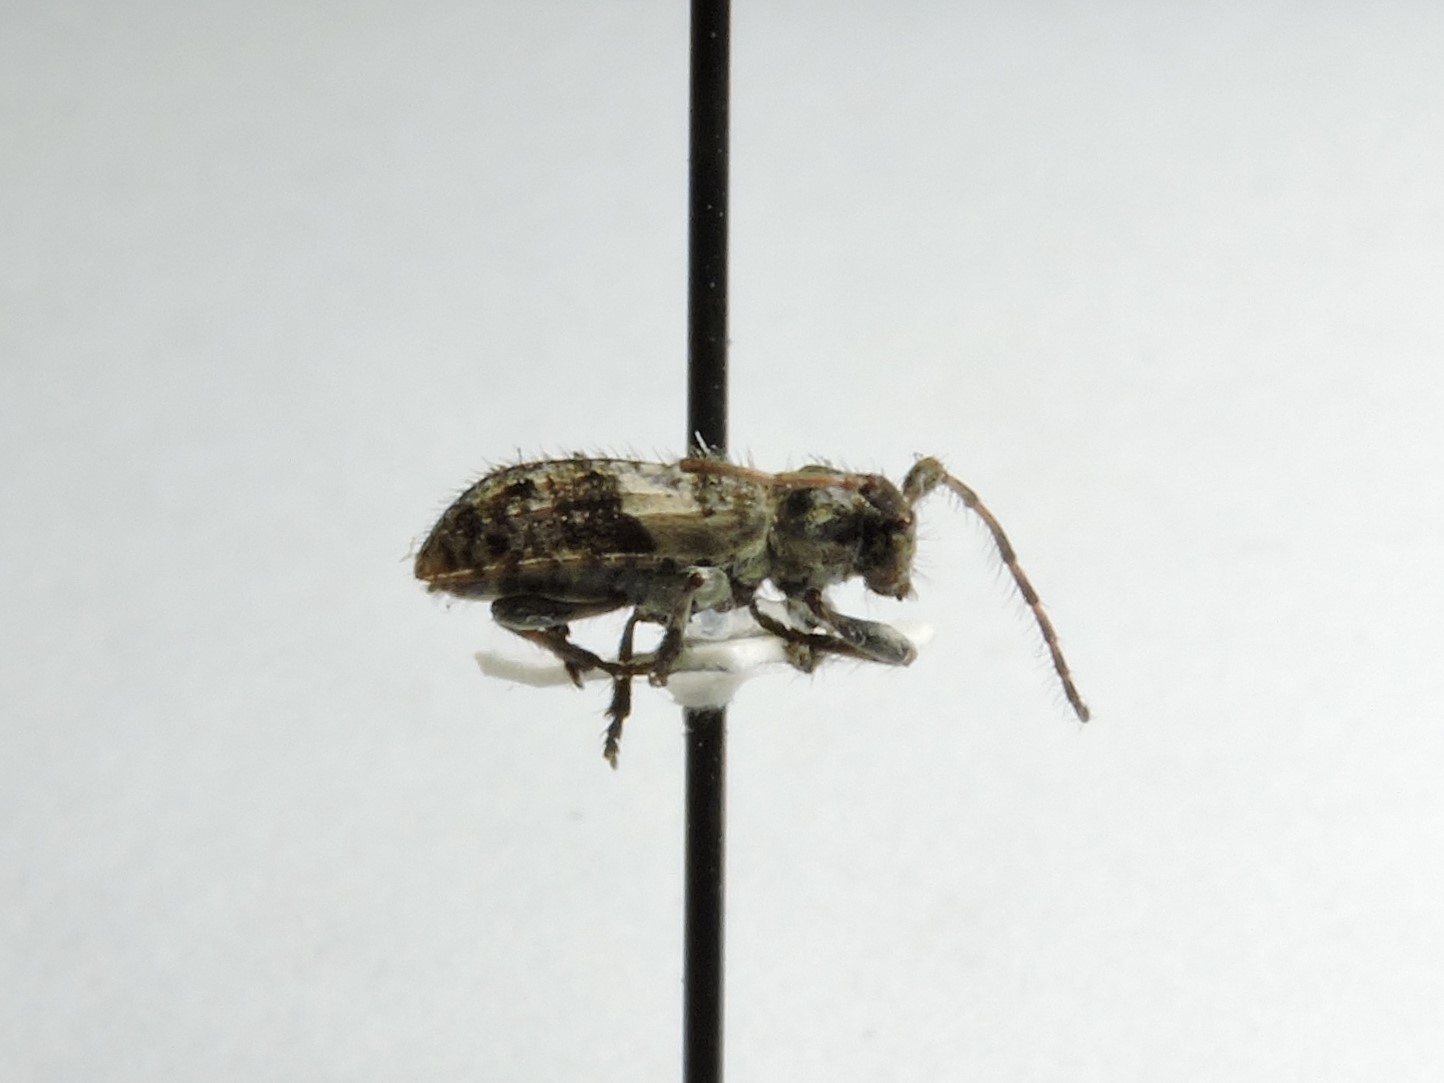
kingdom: Animalia
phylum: Arthropoda
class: Insecta
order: Coleoptera
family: Cerambycidae
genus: Pogonocherus
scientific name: Pogonocherus fasciculatus
